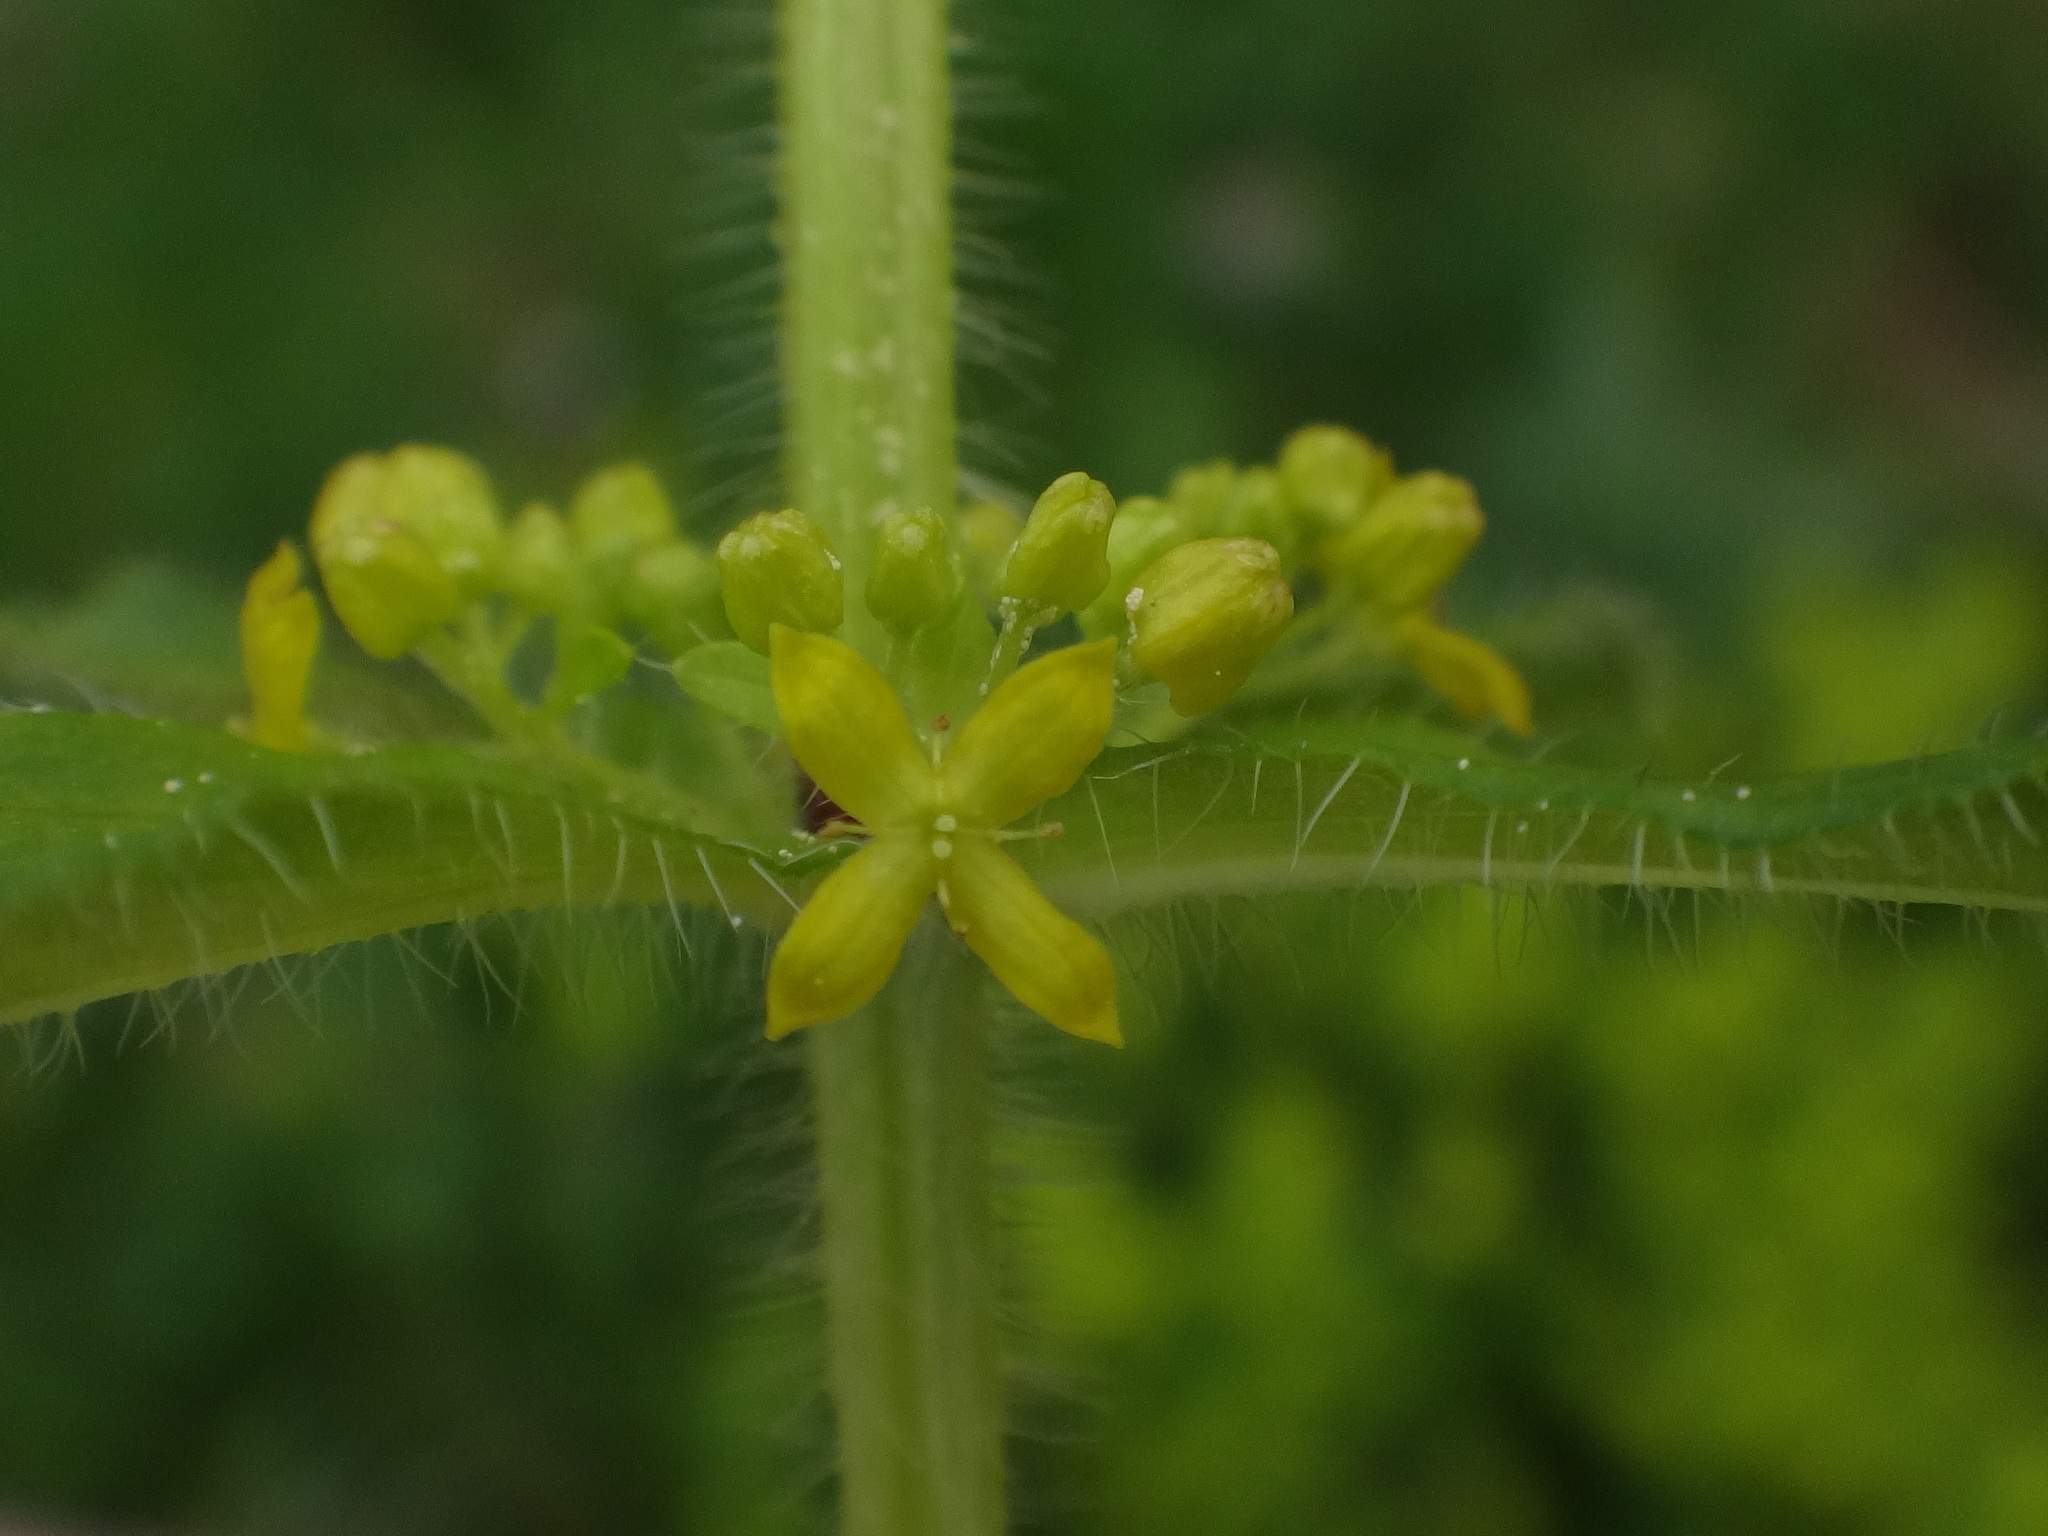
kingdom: Plantae
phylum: Tracheophyta
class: Magnoliopsida
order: Gentianales
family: Rubiaceae
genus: Cruciata
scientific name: Cruciata laevipes
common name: Crosswort
